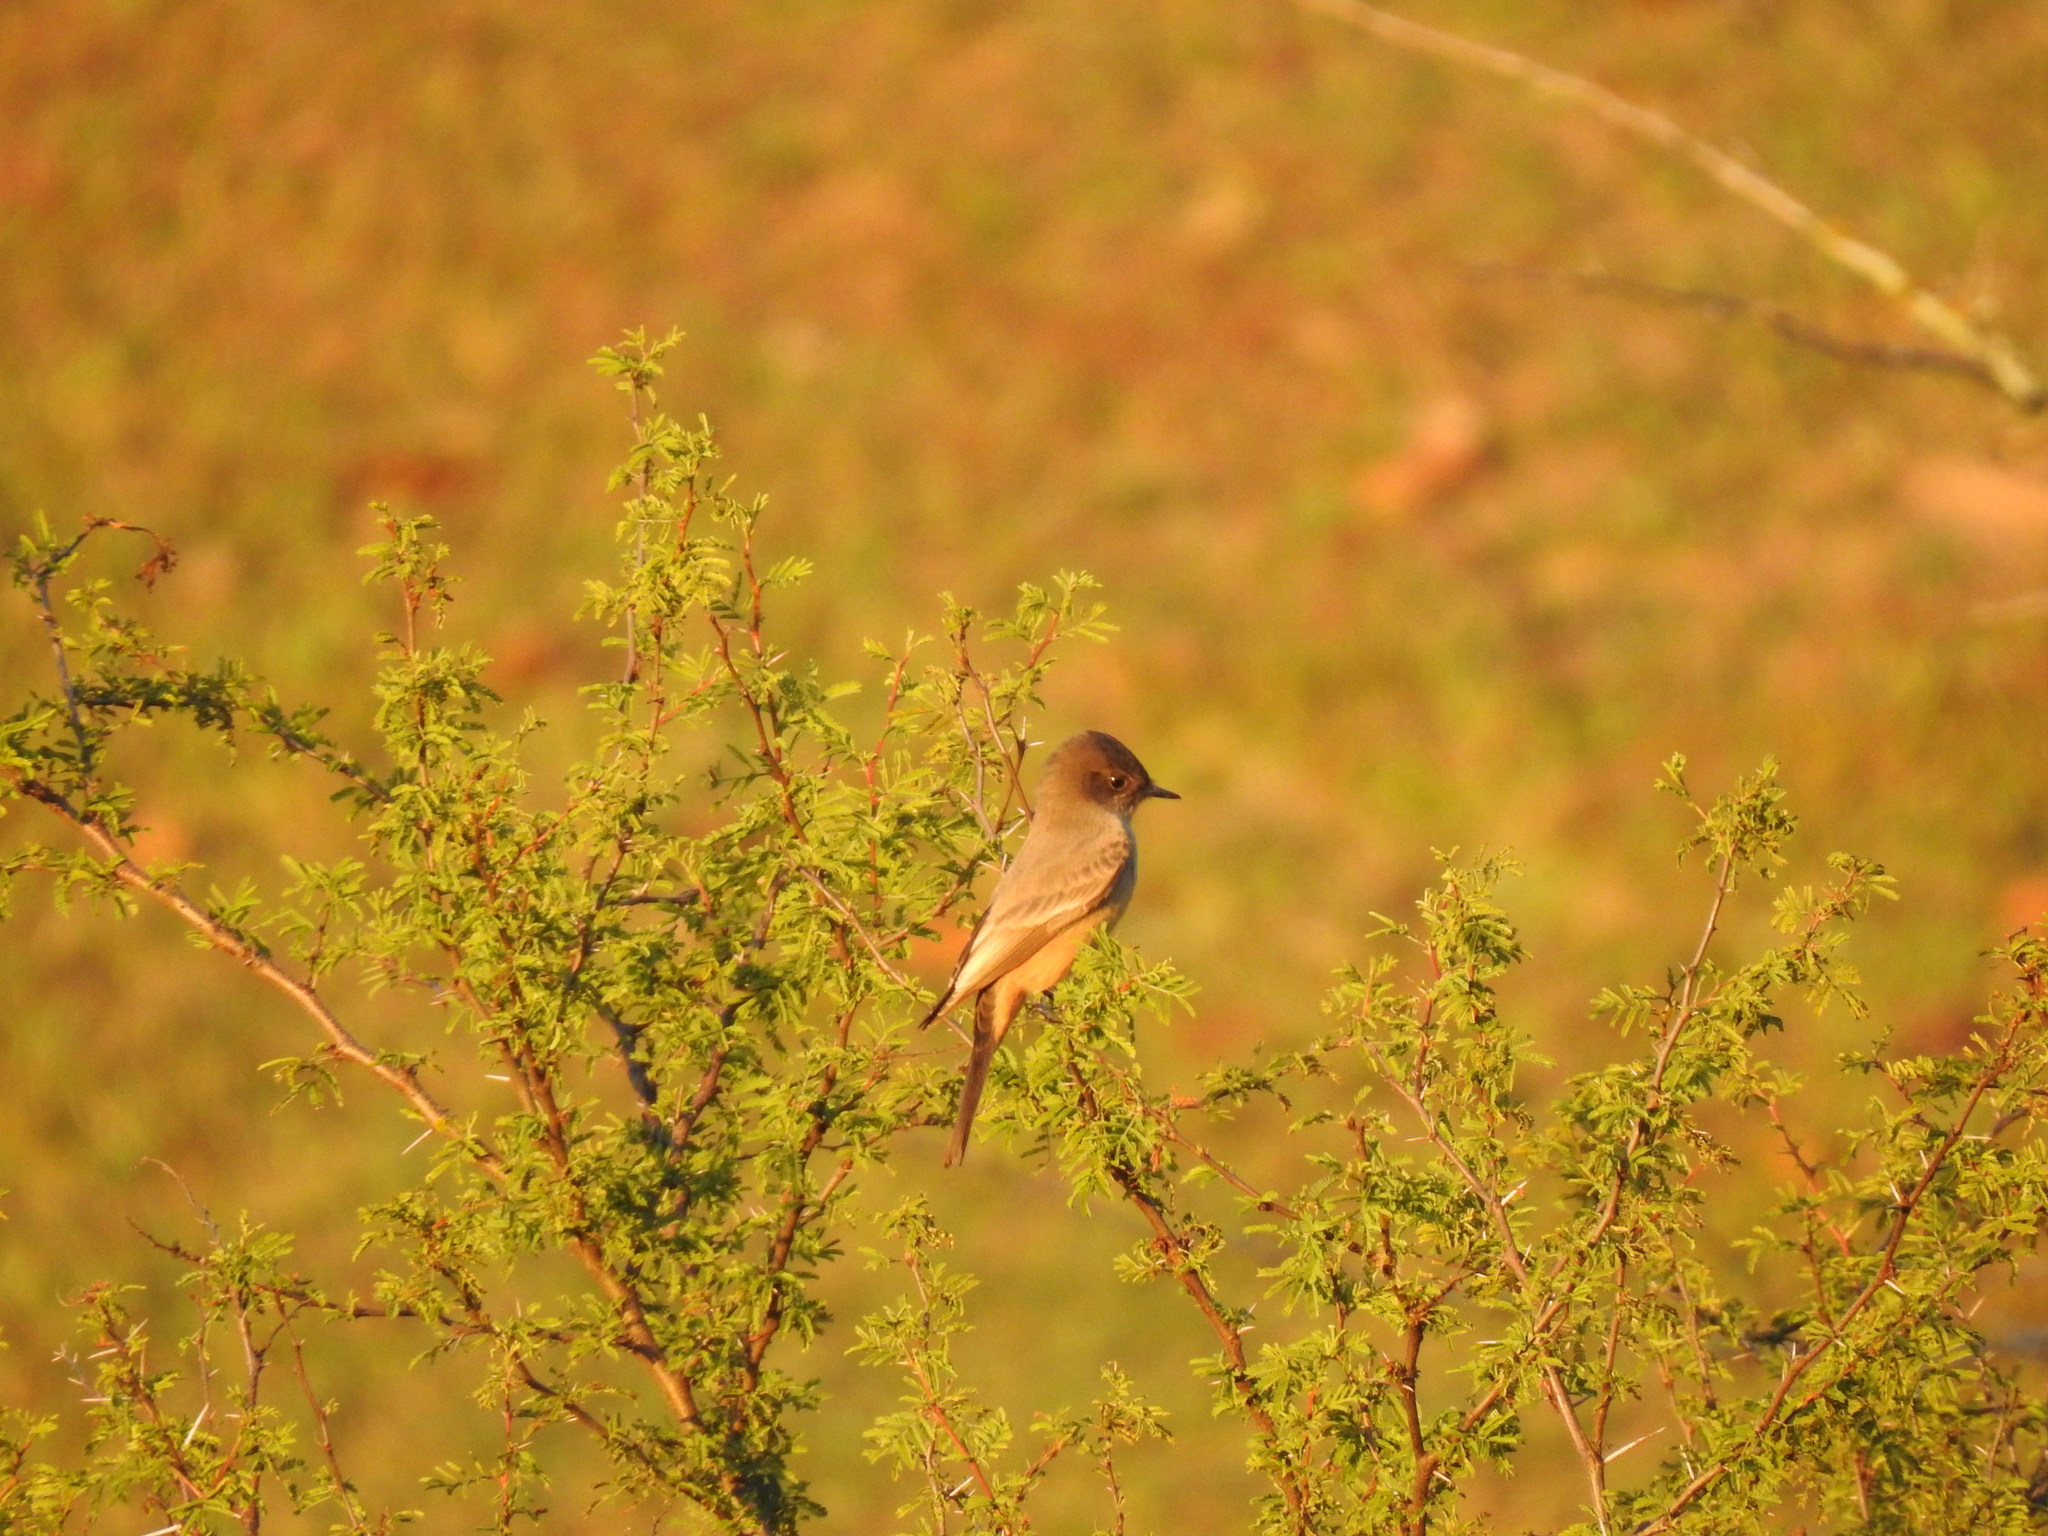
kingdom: Animalia
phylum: Chordata
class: Aves
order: Passeriformes
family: Tyrannidae
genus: Sayornis
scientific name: Sayornis saya
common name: Say's phoebe
